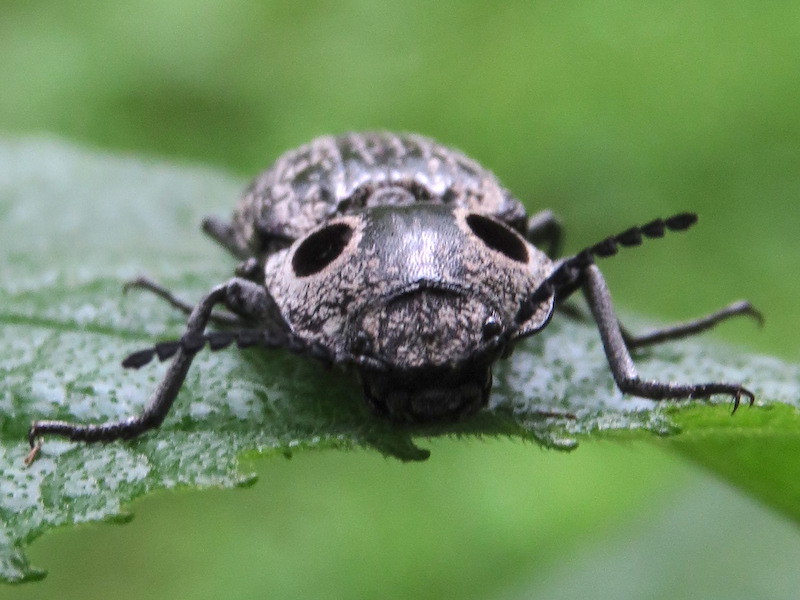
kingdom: Animalia
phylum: Arthropoda
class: Insecta
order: Coleoptera
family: Elateridae
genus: Alaus
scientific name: Alaus oculatus
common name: Eastern eyed click beetle
